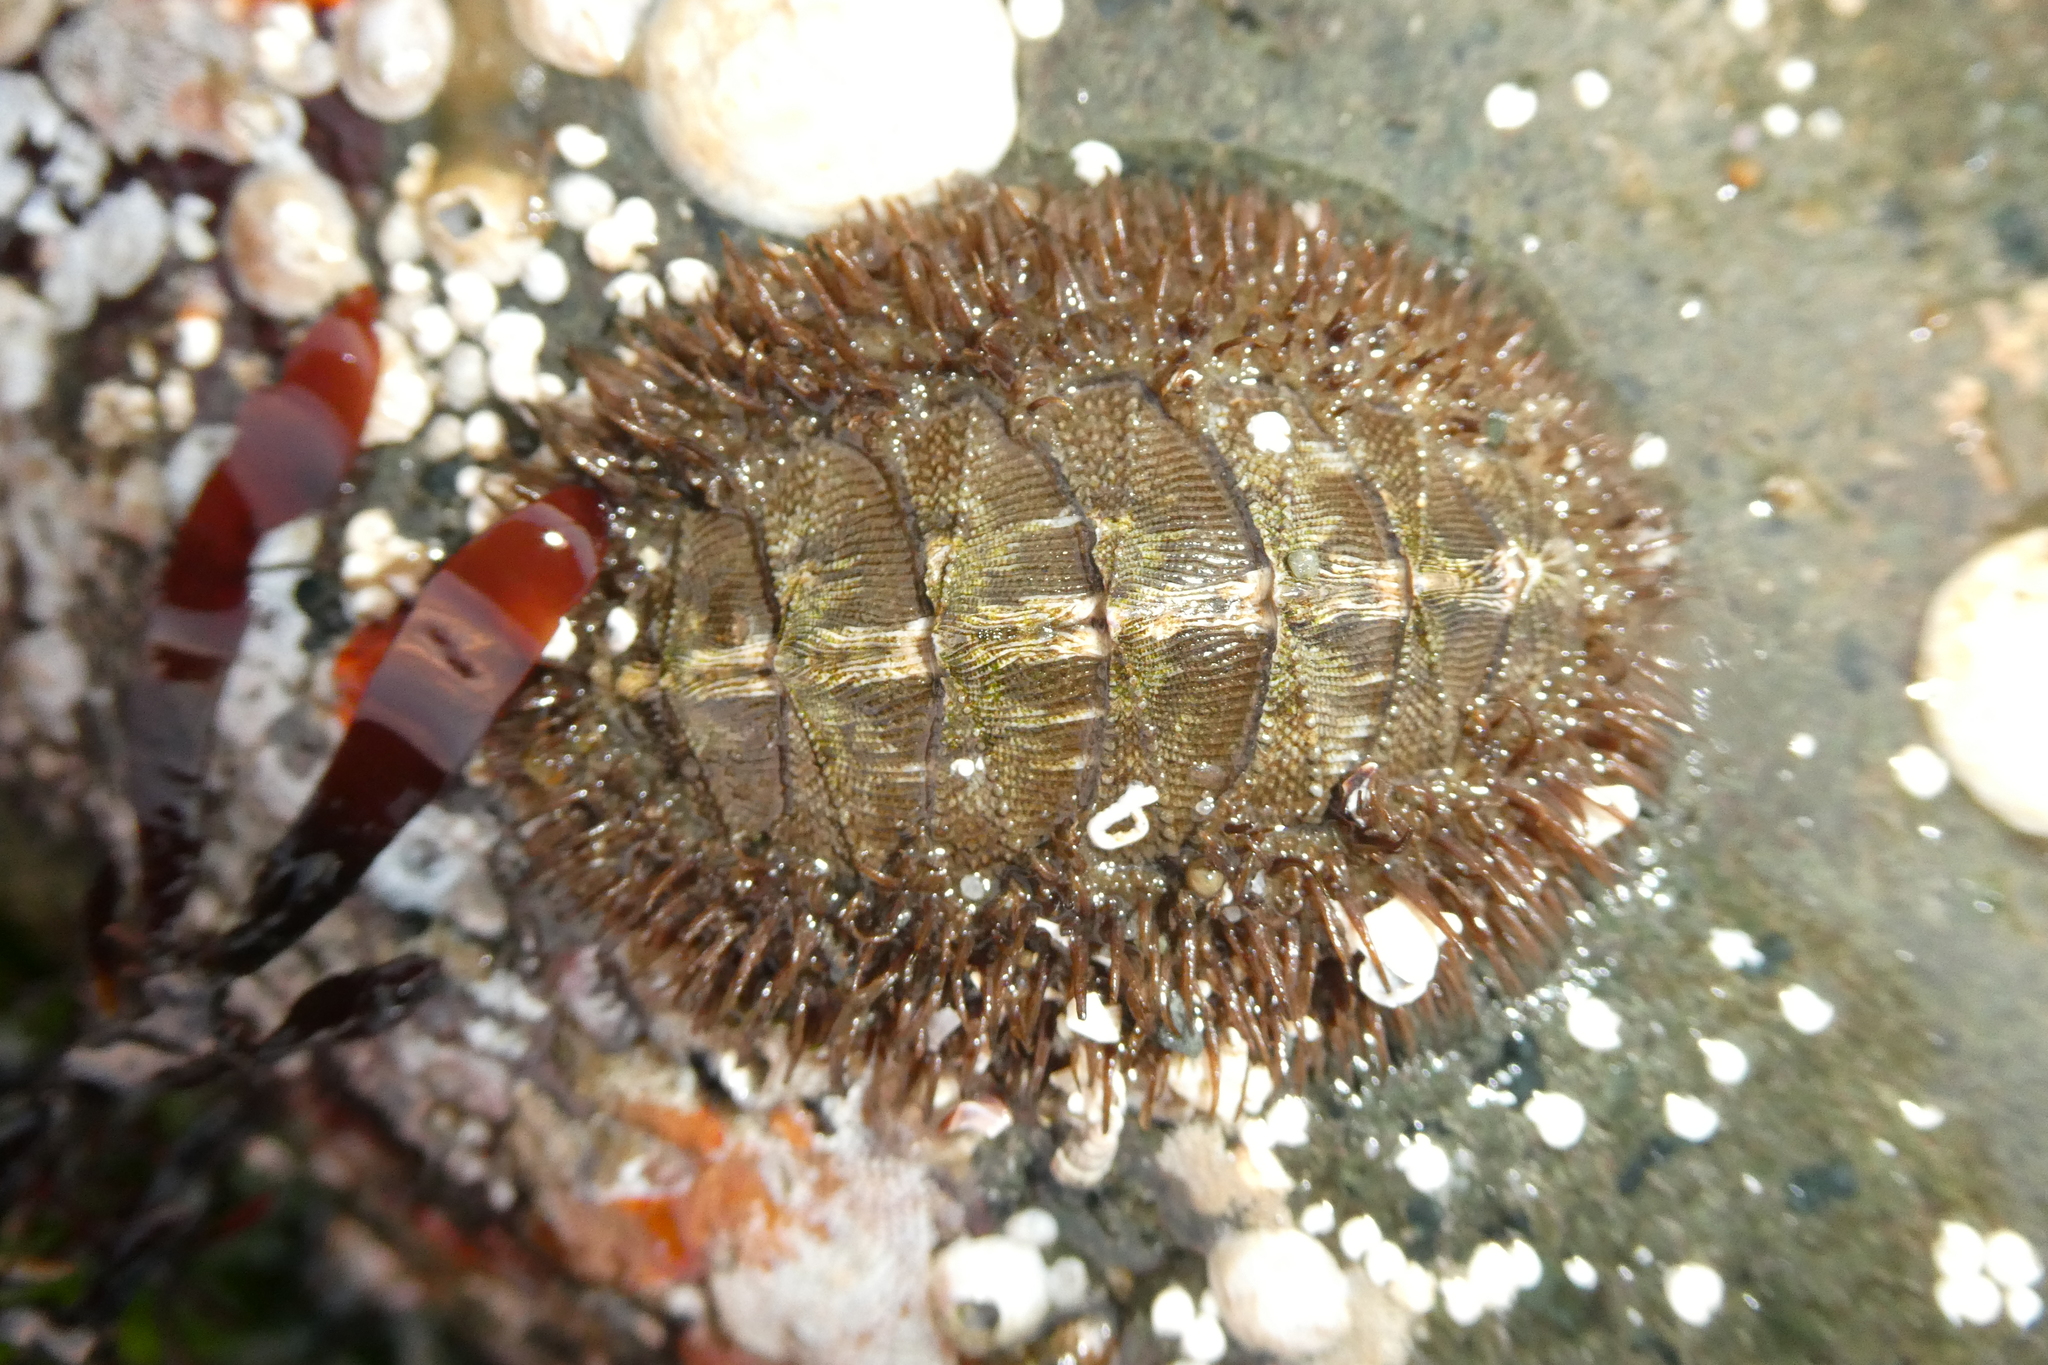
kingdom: Animalia
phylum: Mollusca
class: Polyplacophora
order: Chitonida
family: Mopaliidae
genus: Mopalia
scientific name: Mopalia muscosa
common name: Mossy chiton
